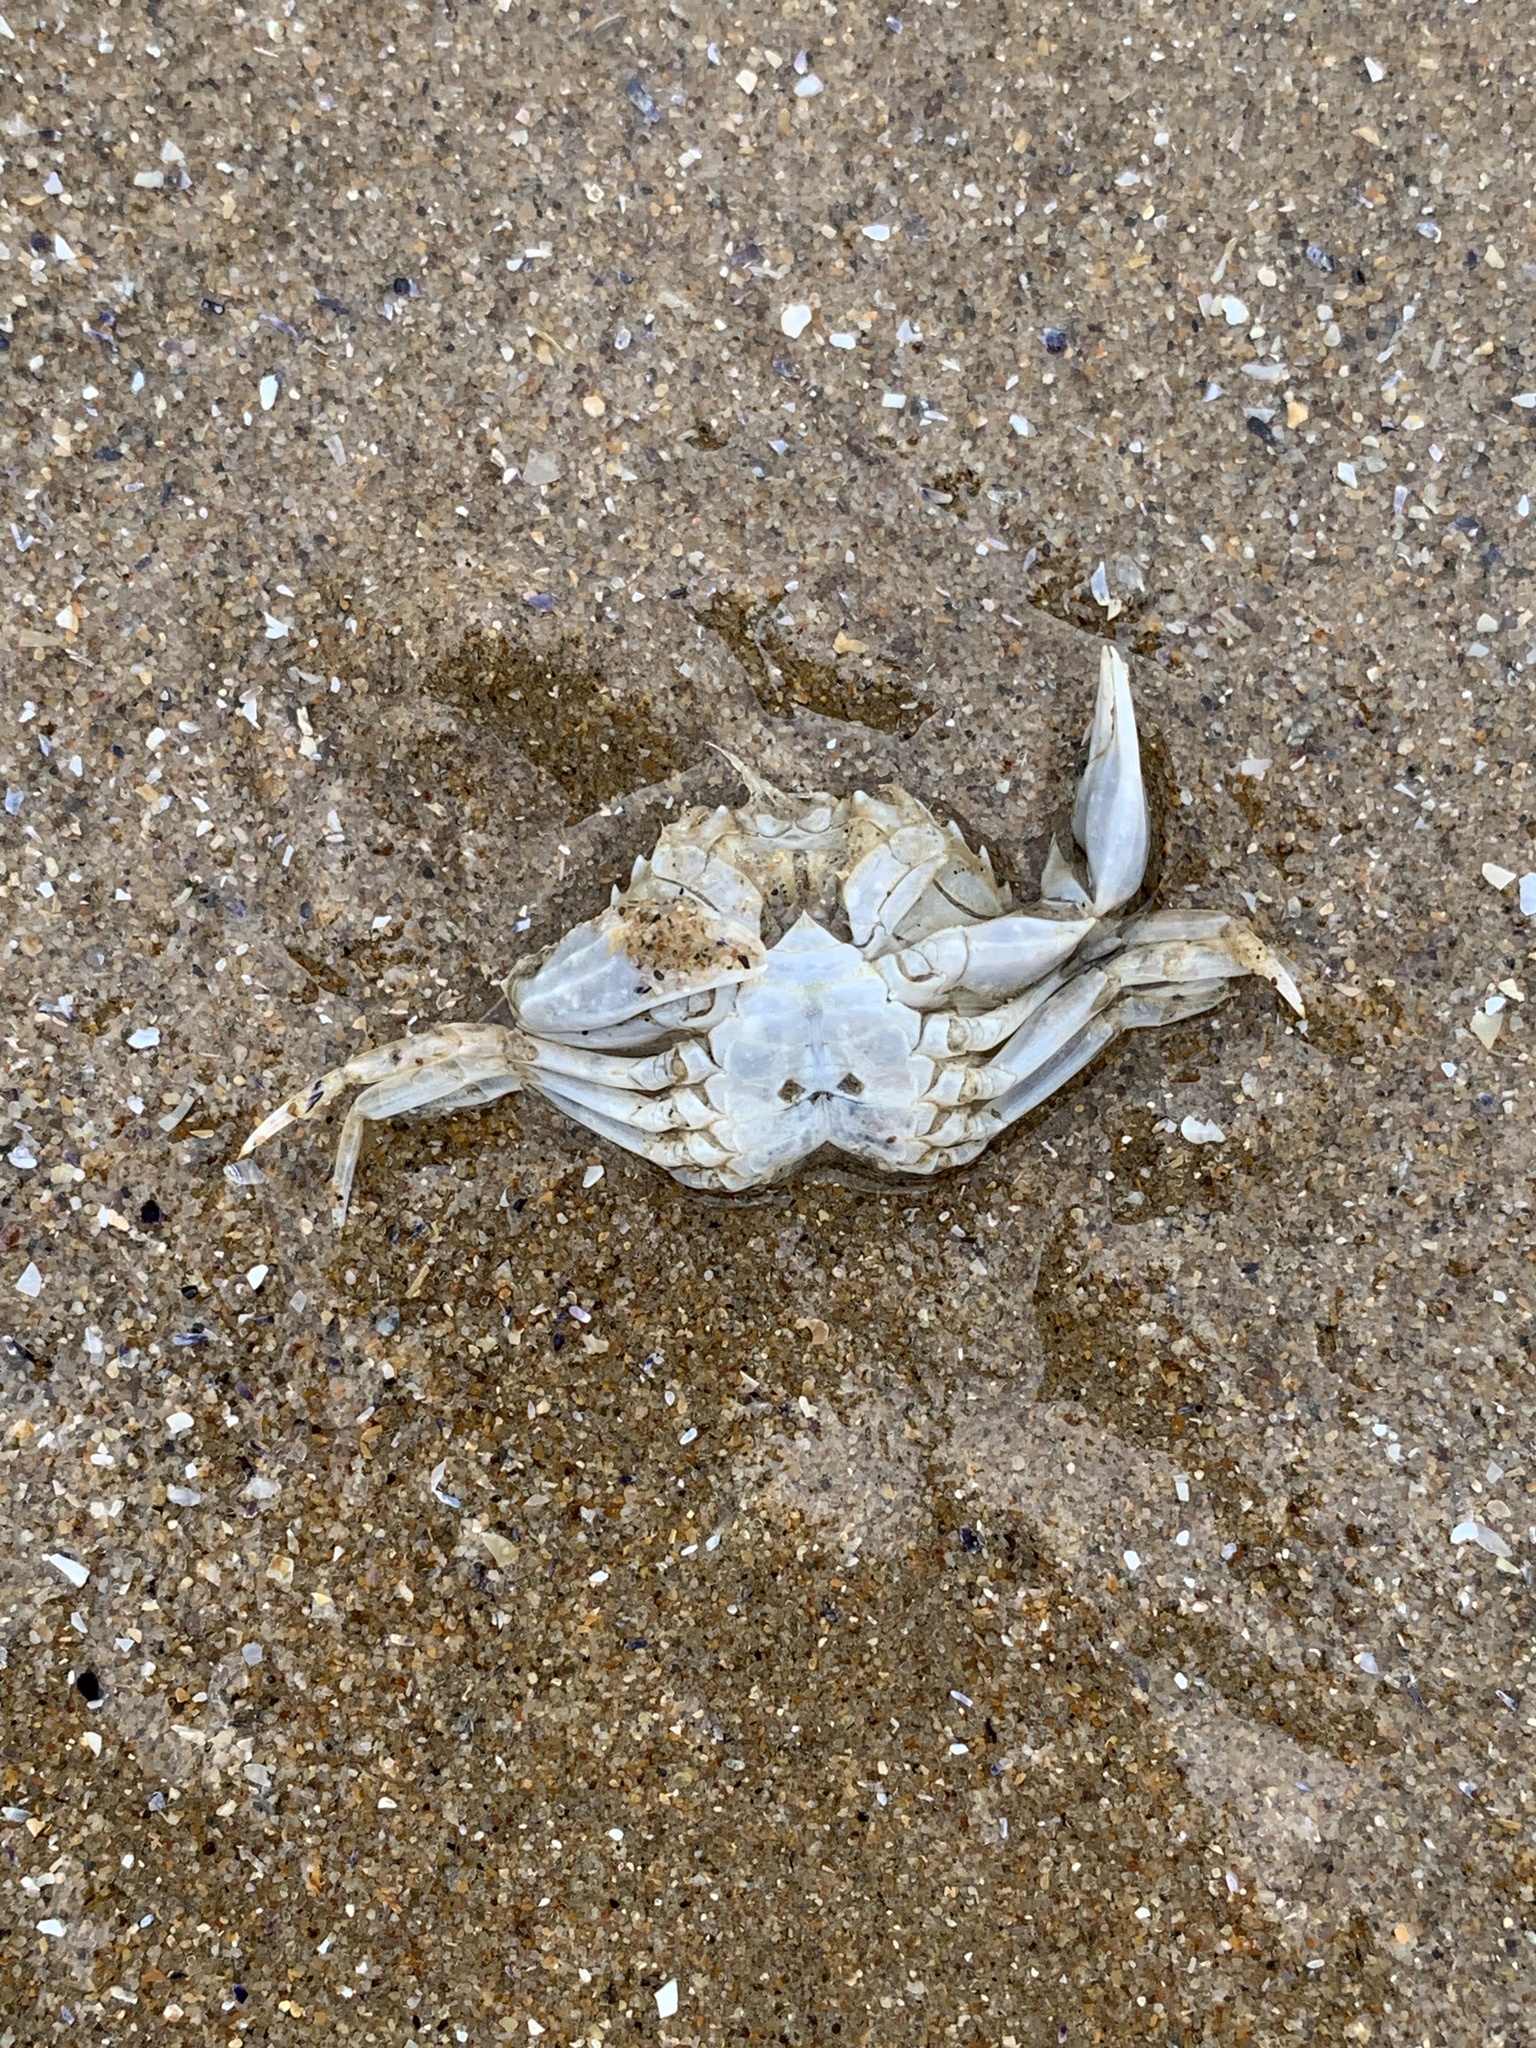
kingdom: Animalia
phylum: Arthropoda
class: Malacostraca
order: Decapoda
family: Polybiidae
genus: Liocarcinus
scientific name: Liocarcinus vernalis
